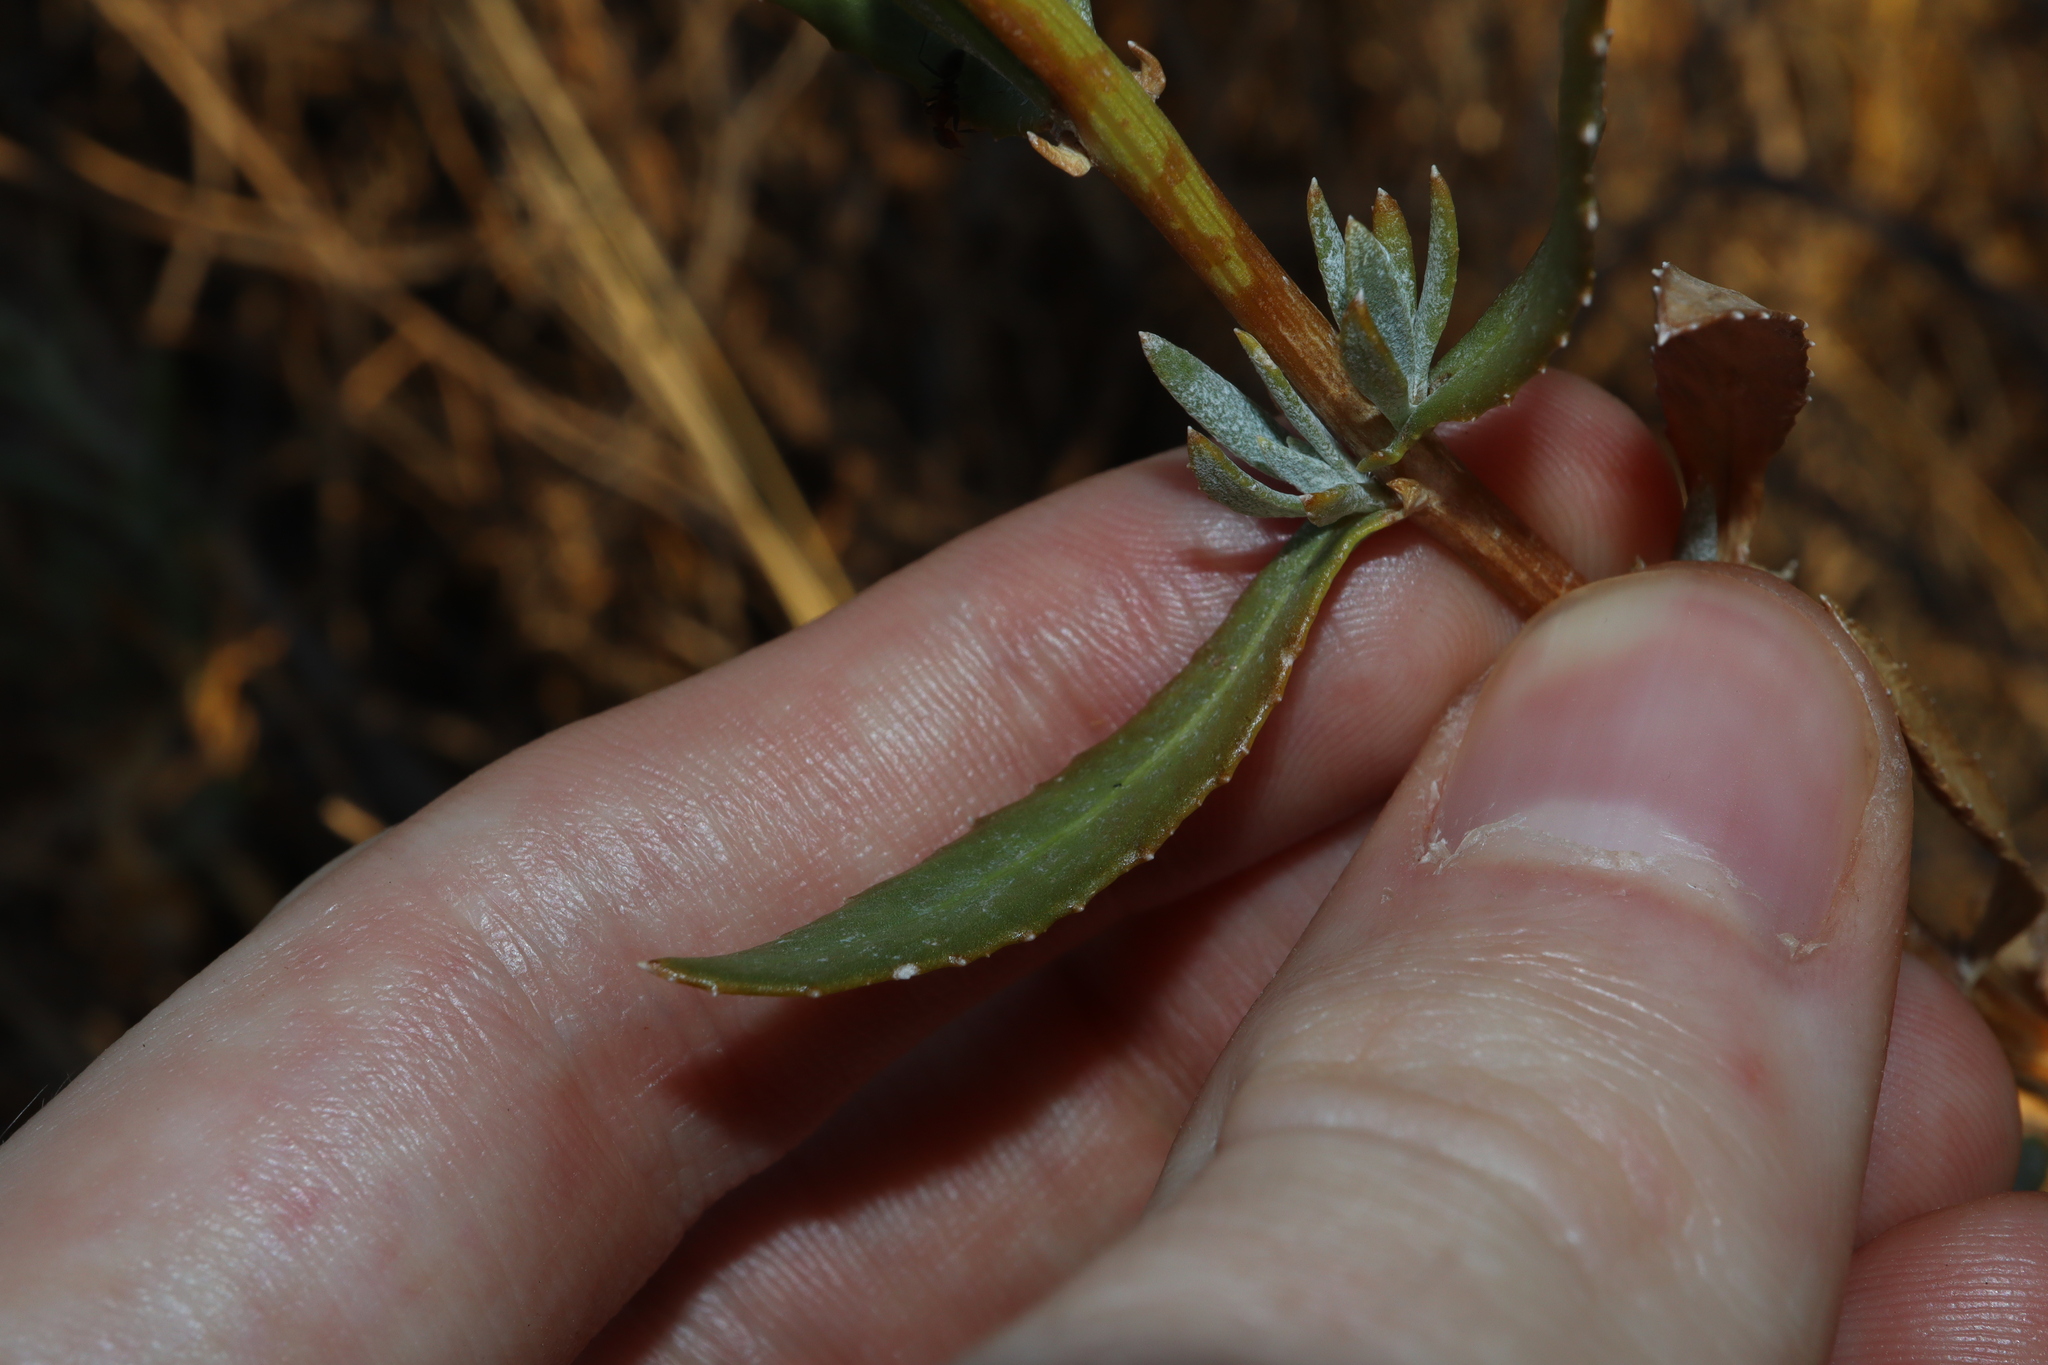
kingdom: Plantae
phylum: Tracheophyta
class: Magnoliopsida
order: Asterales
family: Asteraceae
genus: Senecio
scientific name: Senecio lanibracteus
